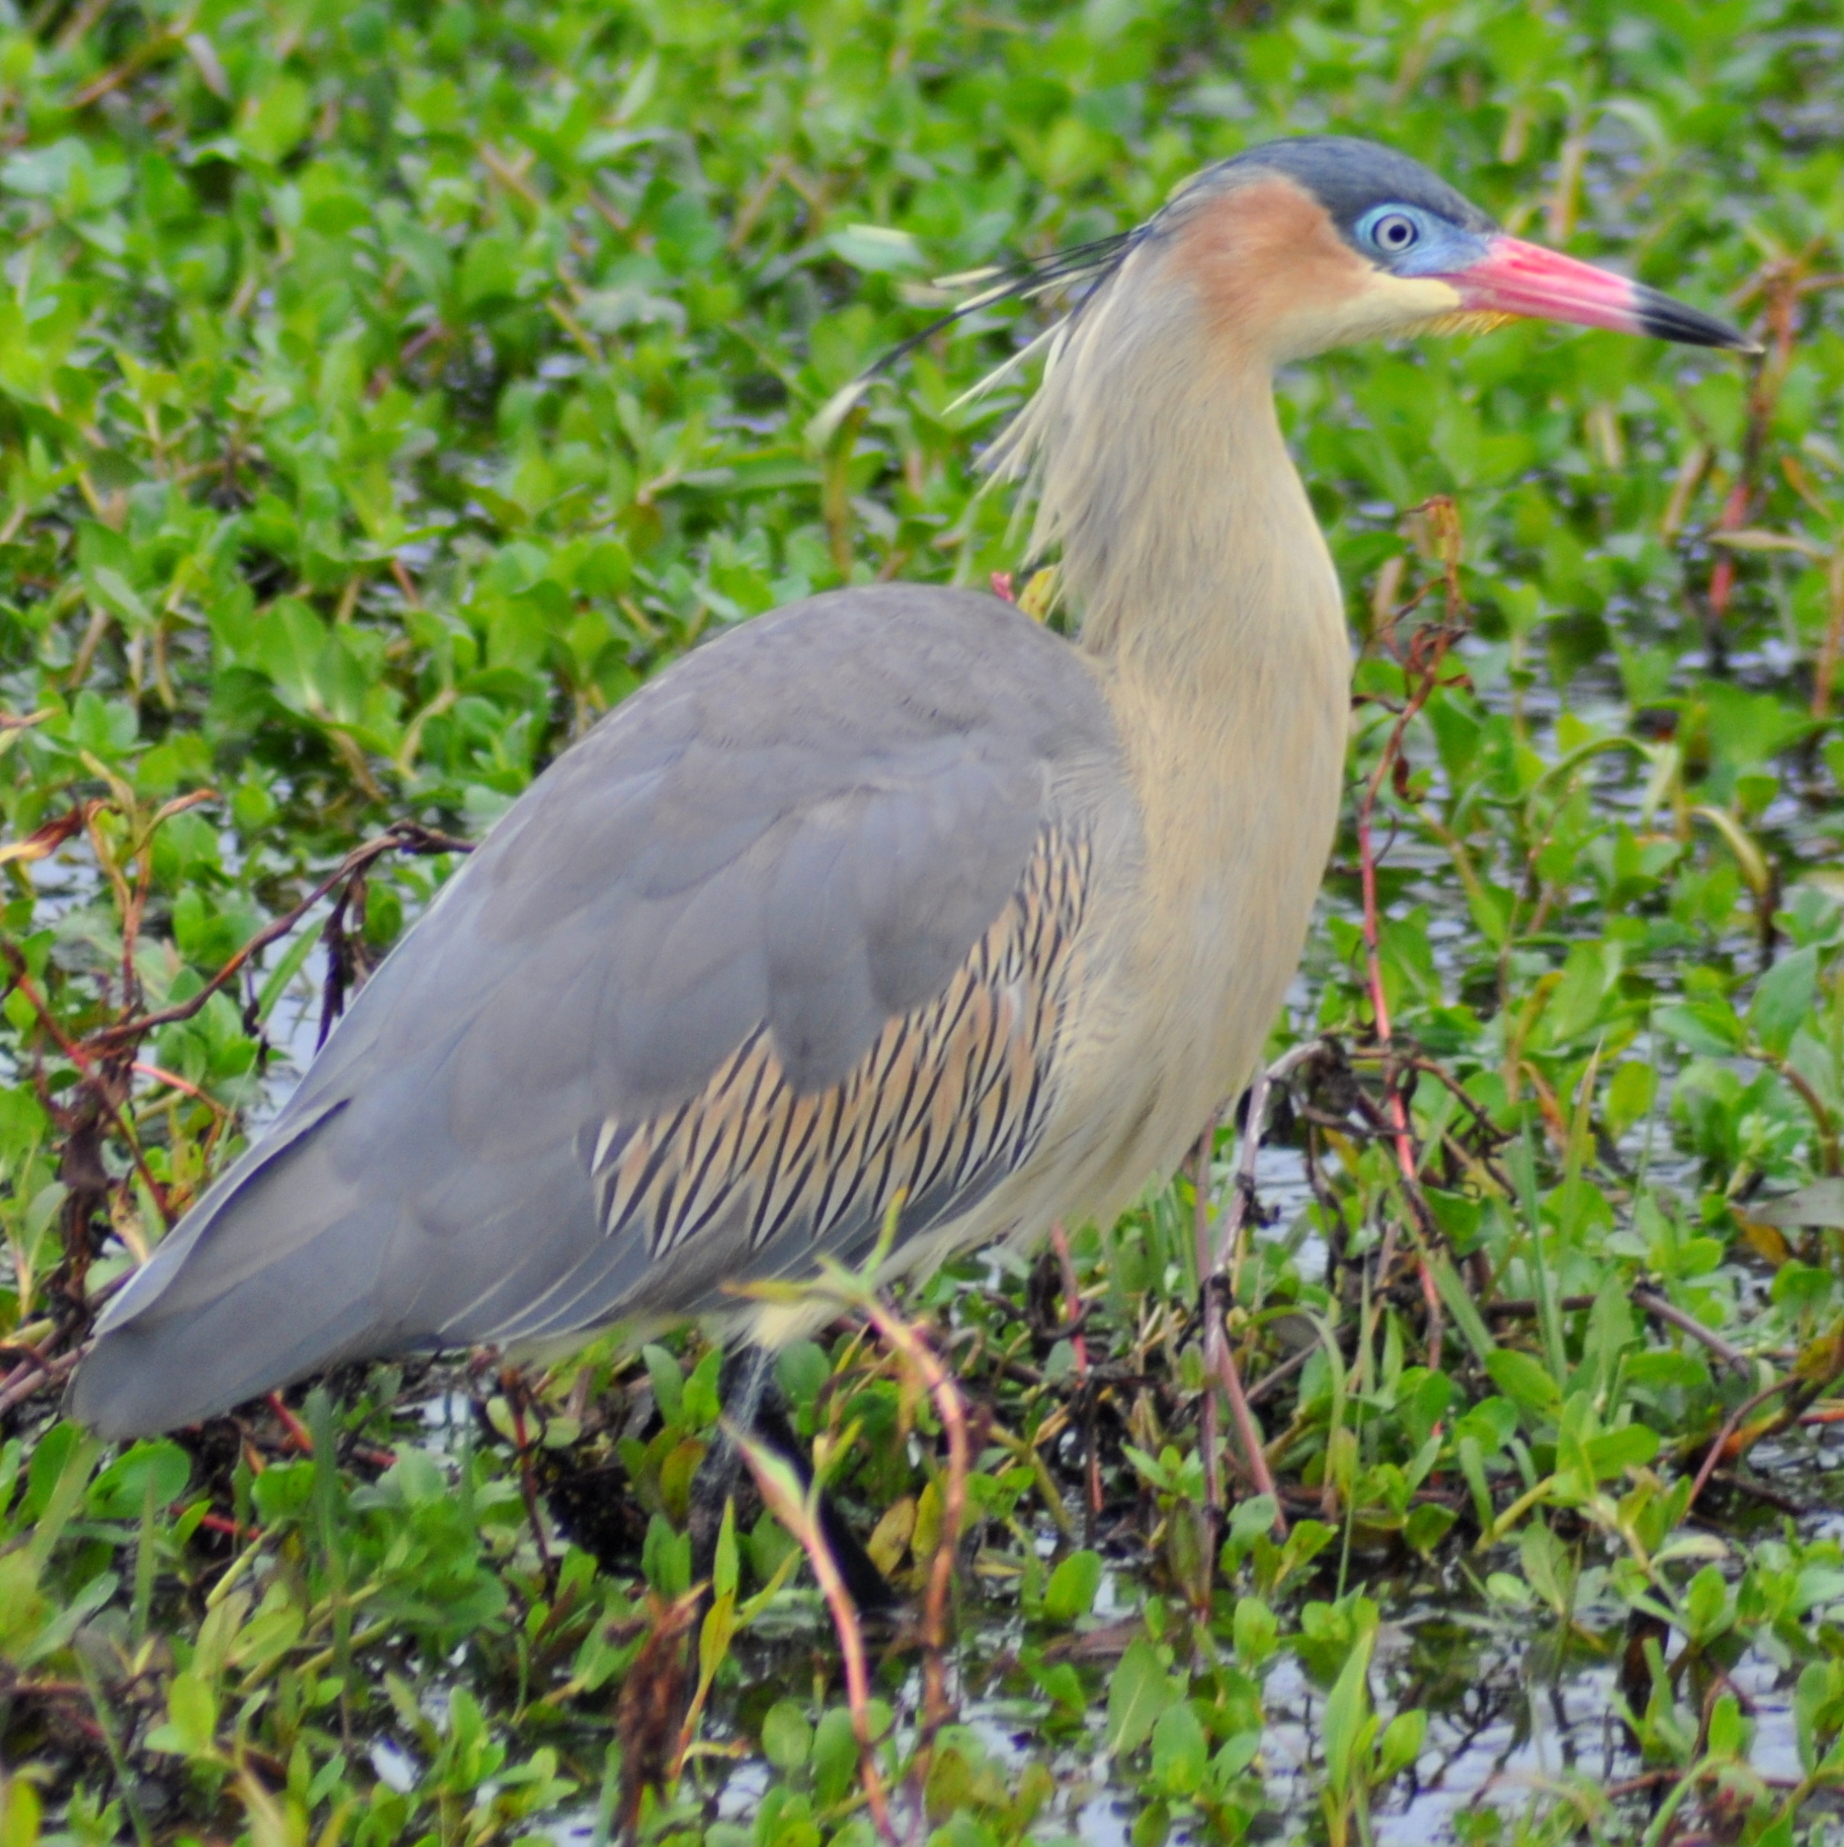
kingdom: Animalia
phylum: Chordata
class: Aves
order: Pelecaniformes
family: Ardeidae
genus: Syrigma
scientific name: Syrigma sibilatrix
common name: Whistling heron
